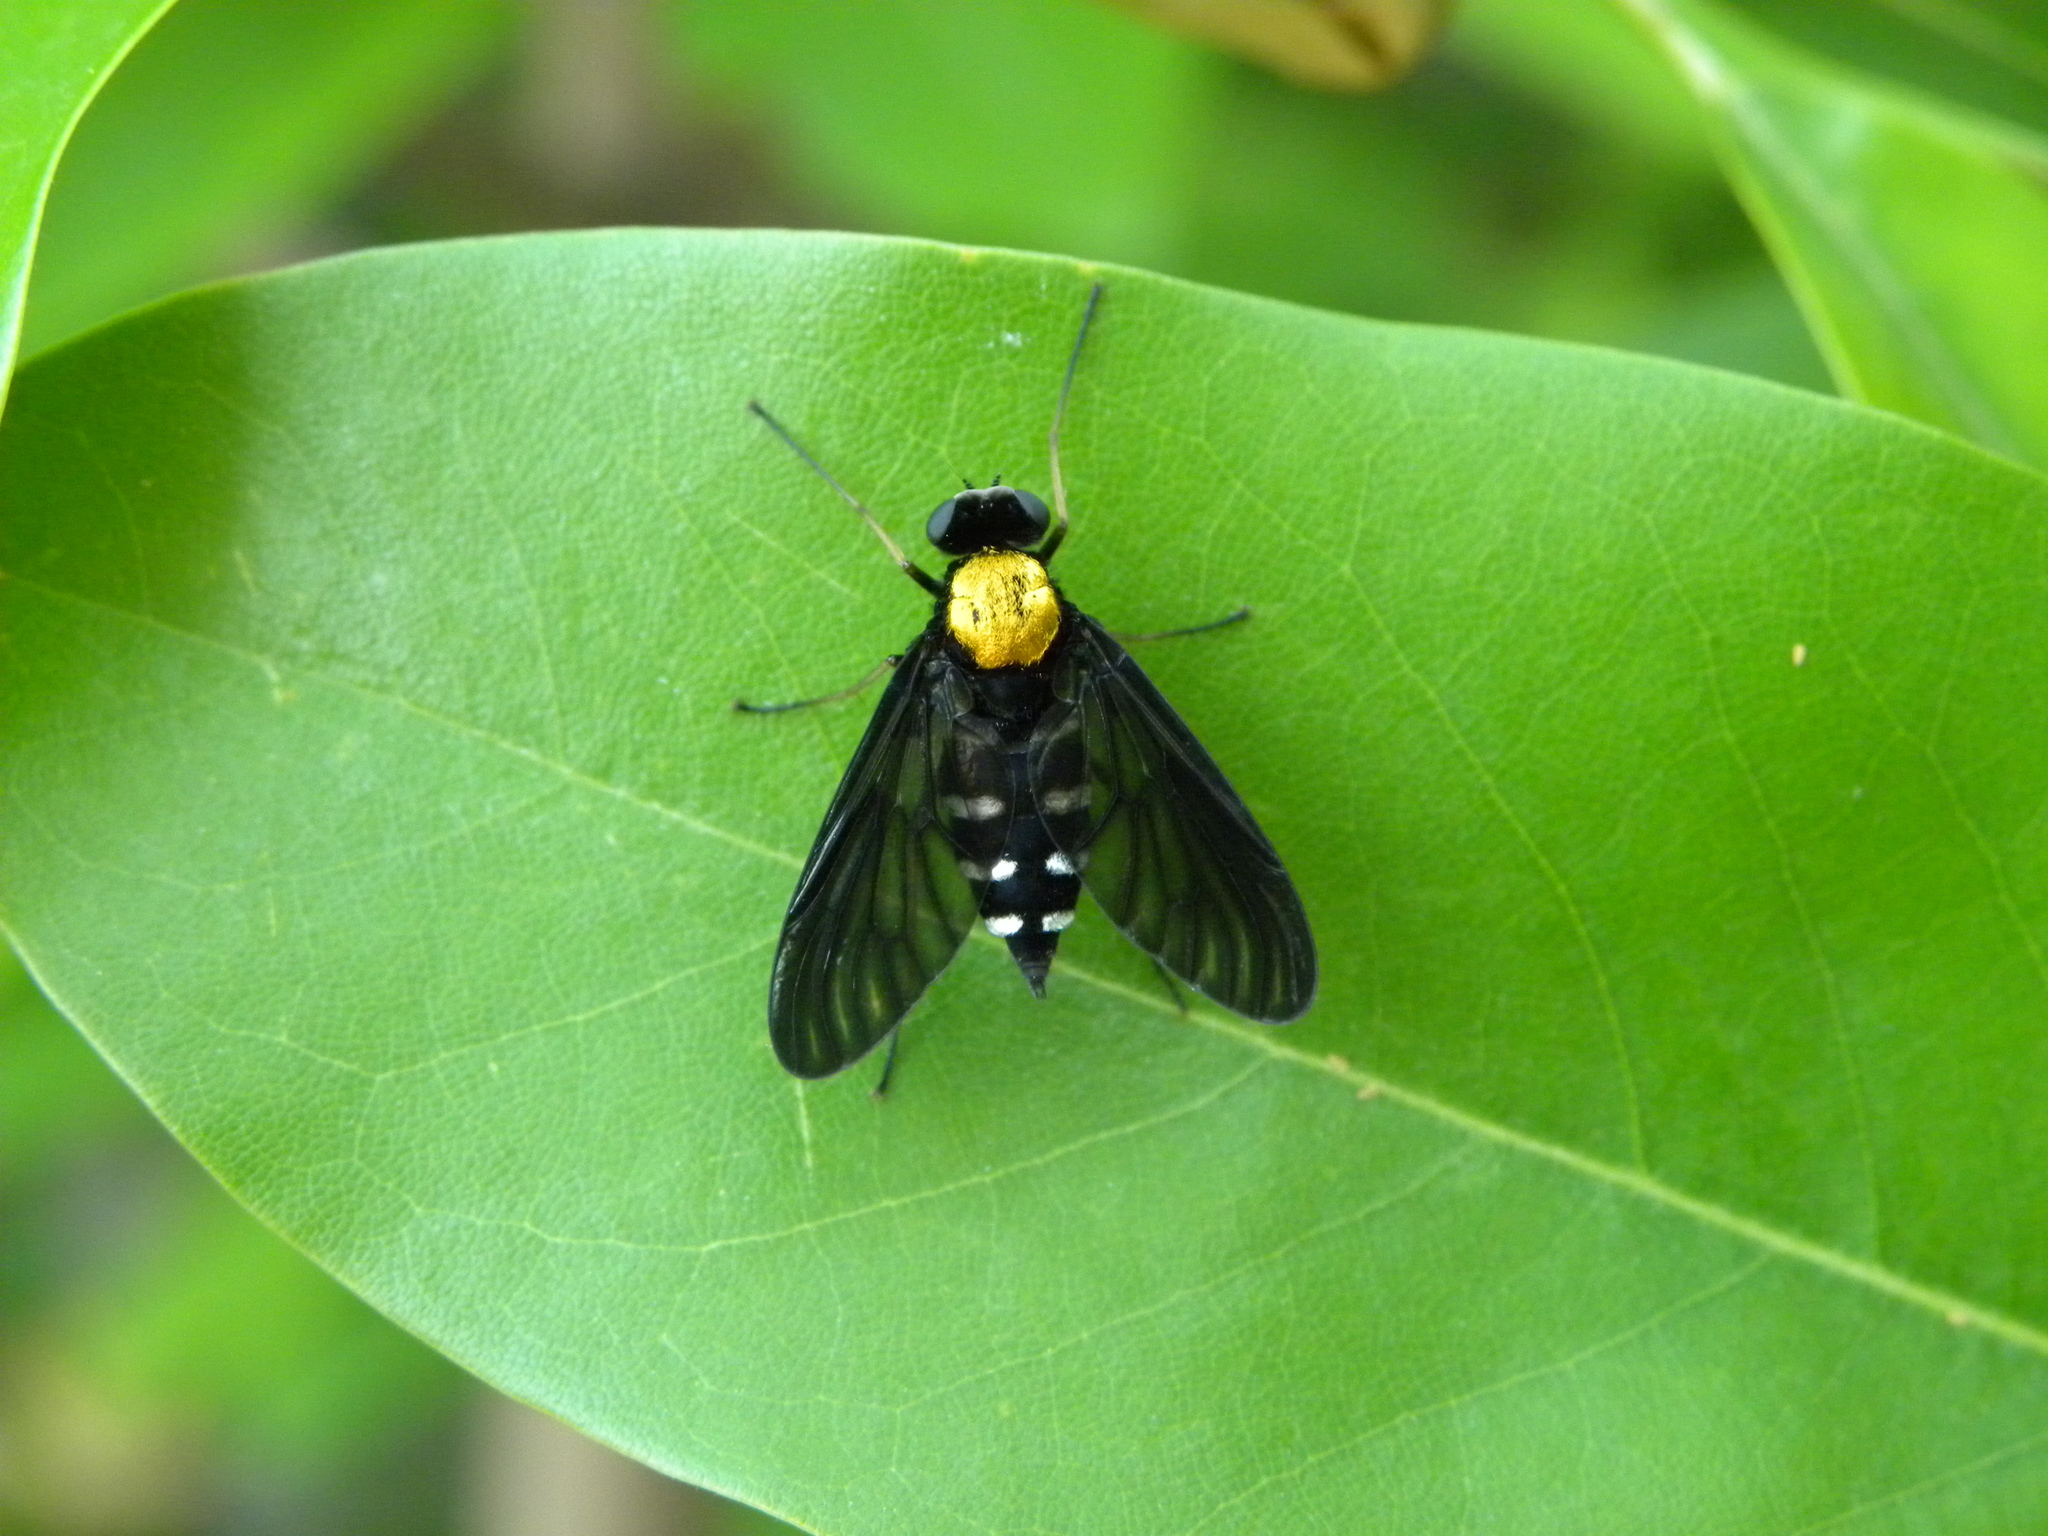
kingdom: Animalia
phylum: Arthropoda
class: Insecta
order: Diptera
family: Rhagionidae
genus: Chrysopilus
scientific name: Chrysopilus thoracicus
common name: Golden-backed snipe fly
